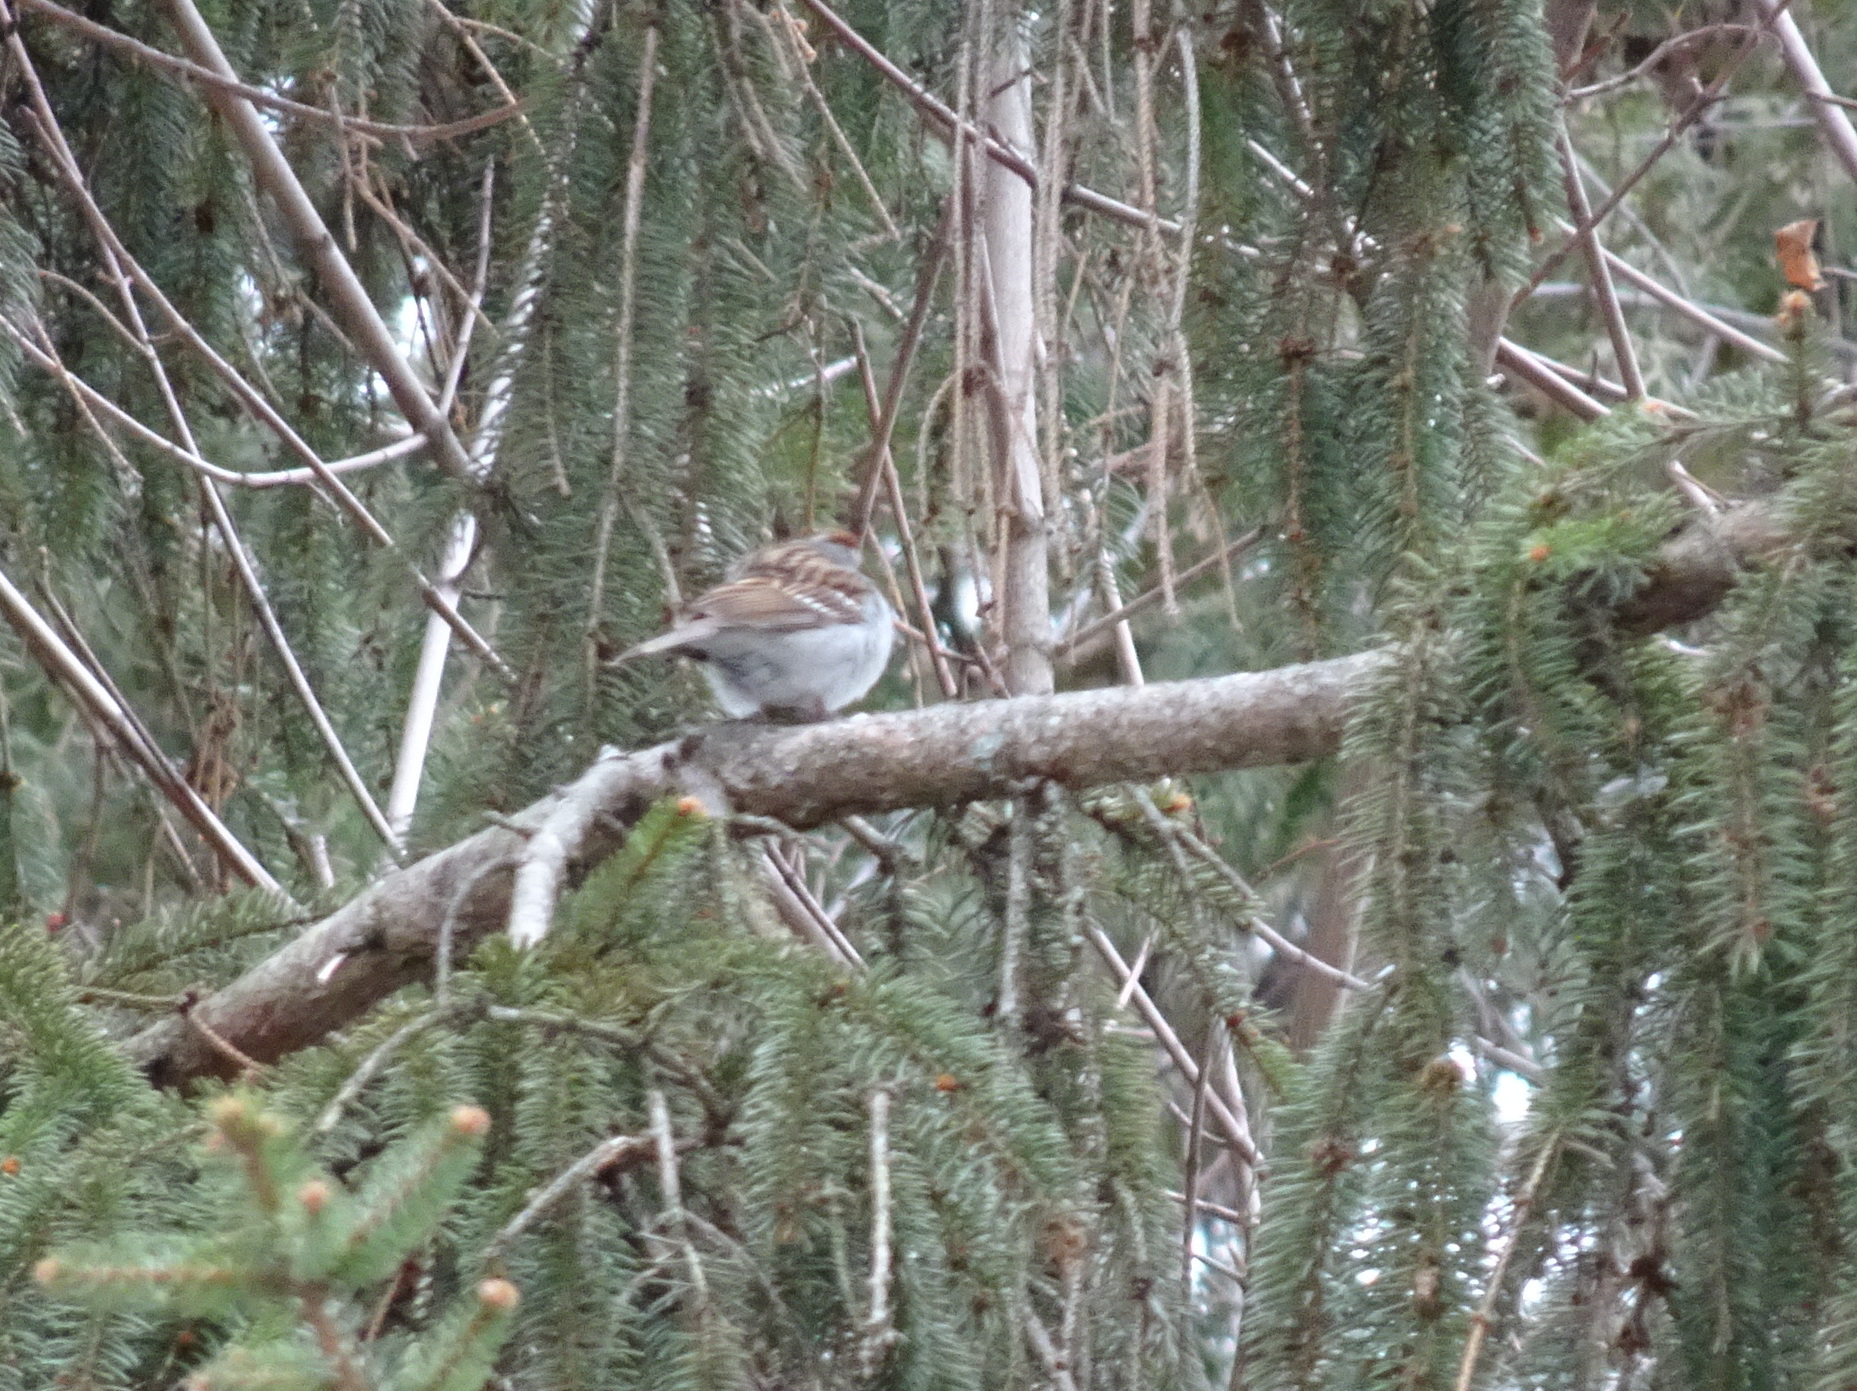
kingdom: Animalia
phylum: Chordata
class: Aves
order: Passeriformes
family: Passerellidae
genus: Spizella
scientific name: Spizella passerina
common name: Chipping sparrow
